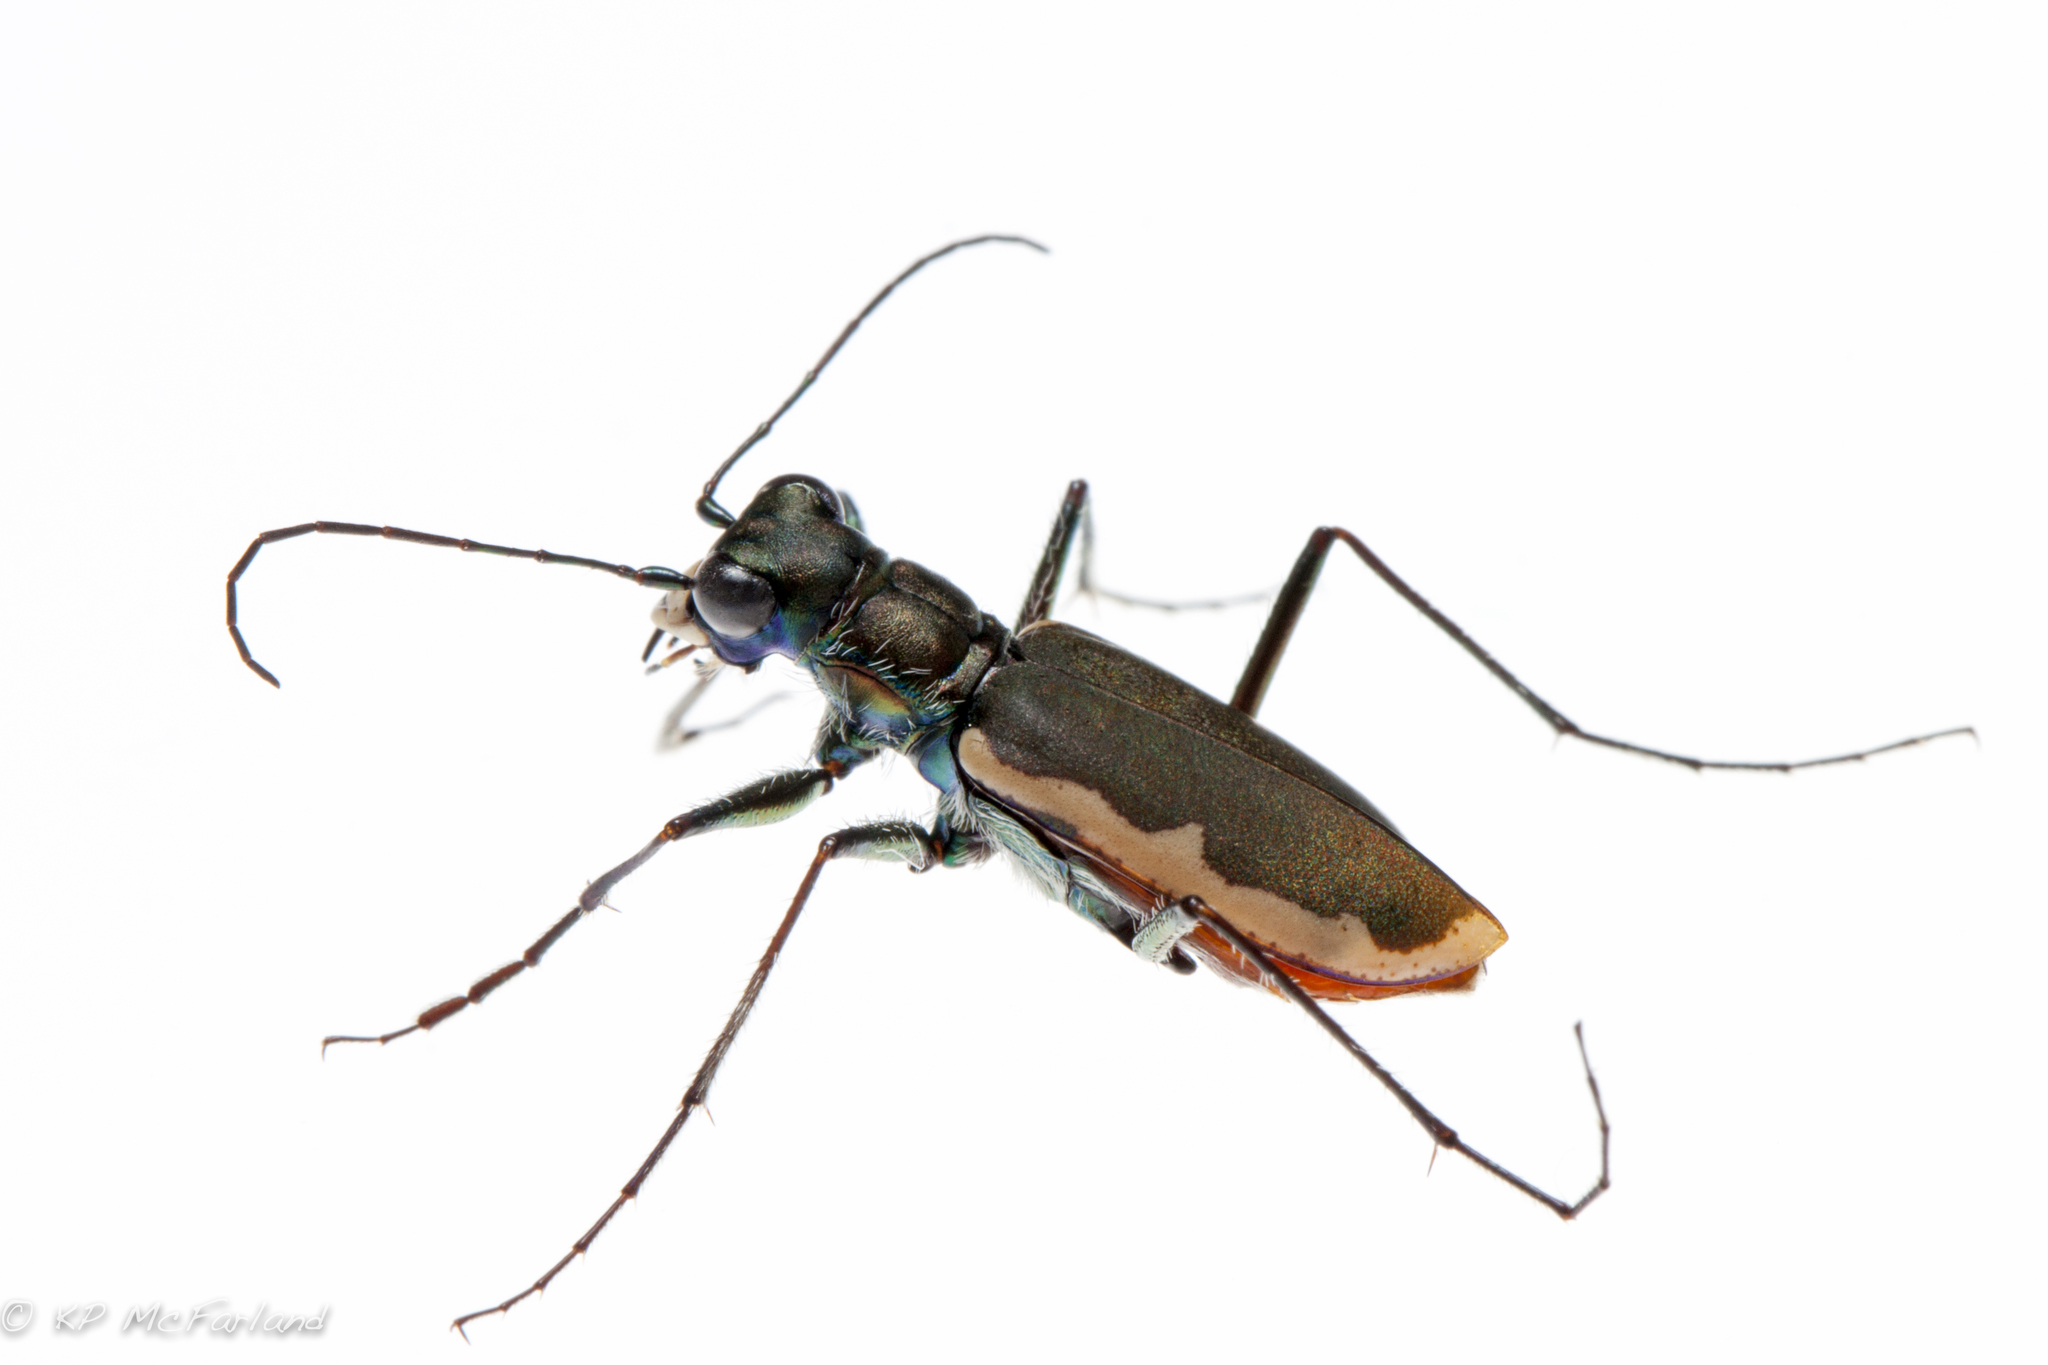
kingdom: Animalia
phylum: Arthropoda
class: Insecta
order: Coleoptera
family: Carabidae
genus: Cicindela
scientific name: Cicindela marginipennis
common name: Cobblestone tiger beetle
